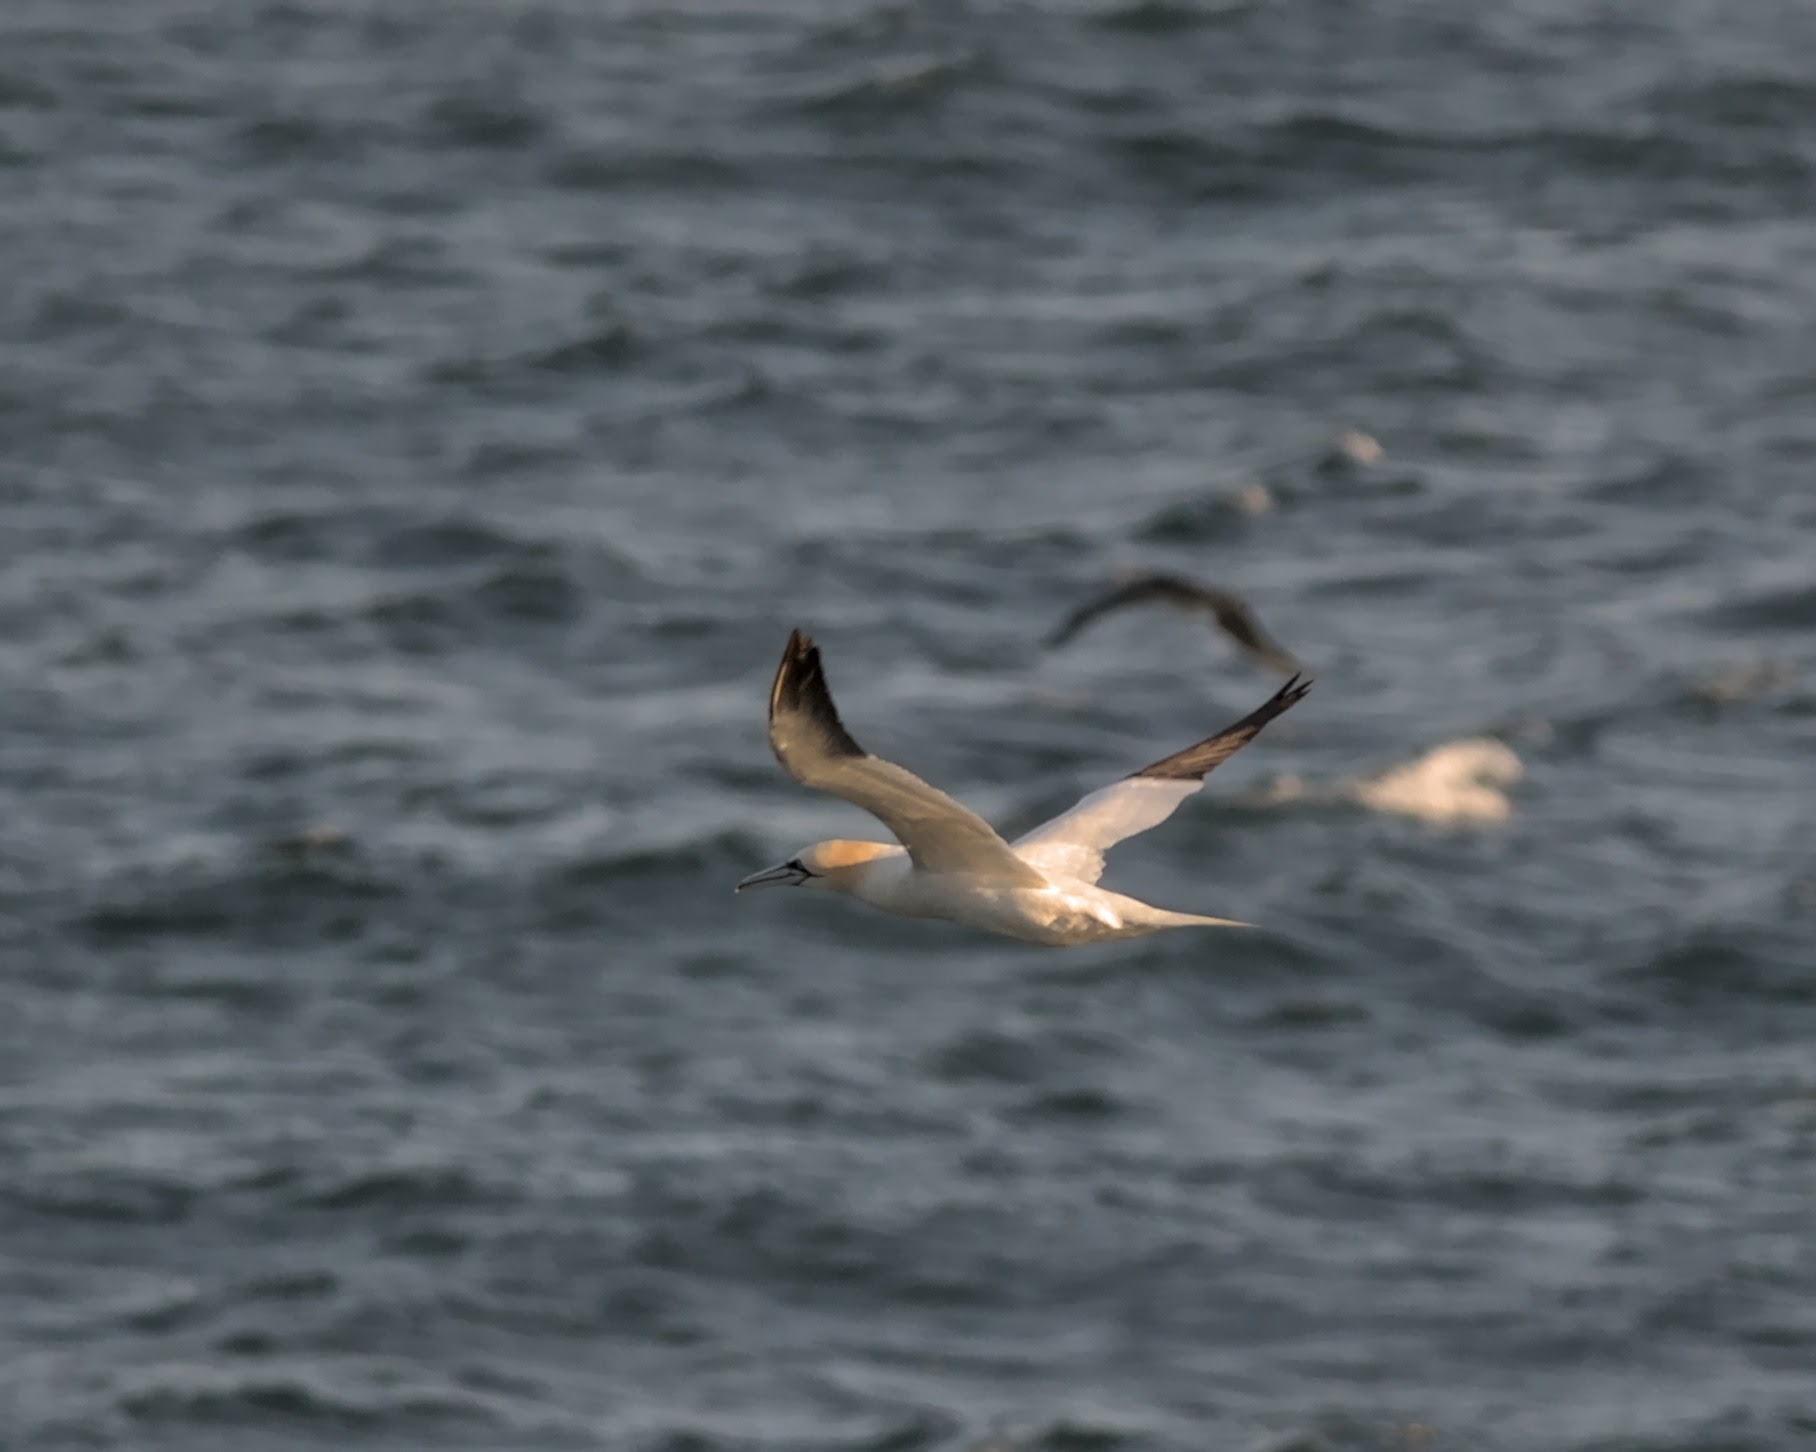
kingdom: Animalia
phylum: Chordata
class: Aves
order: Suliformes
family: Sulidae
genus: Morus
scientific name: Morus bassanus
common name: Northern gannet
